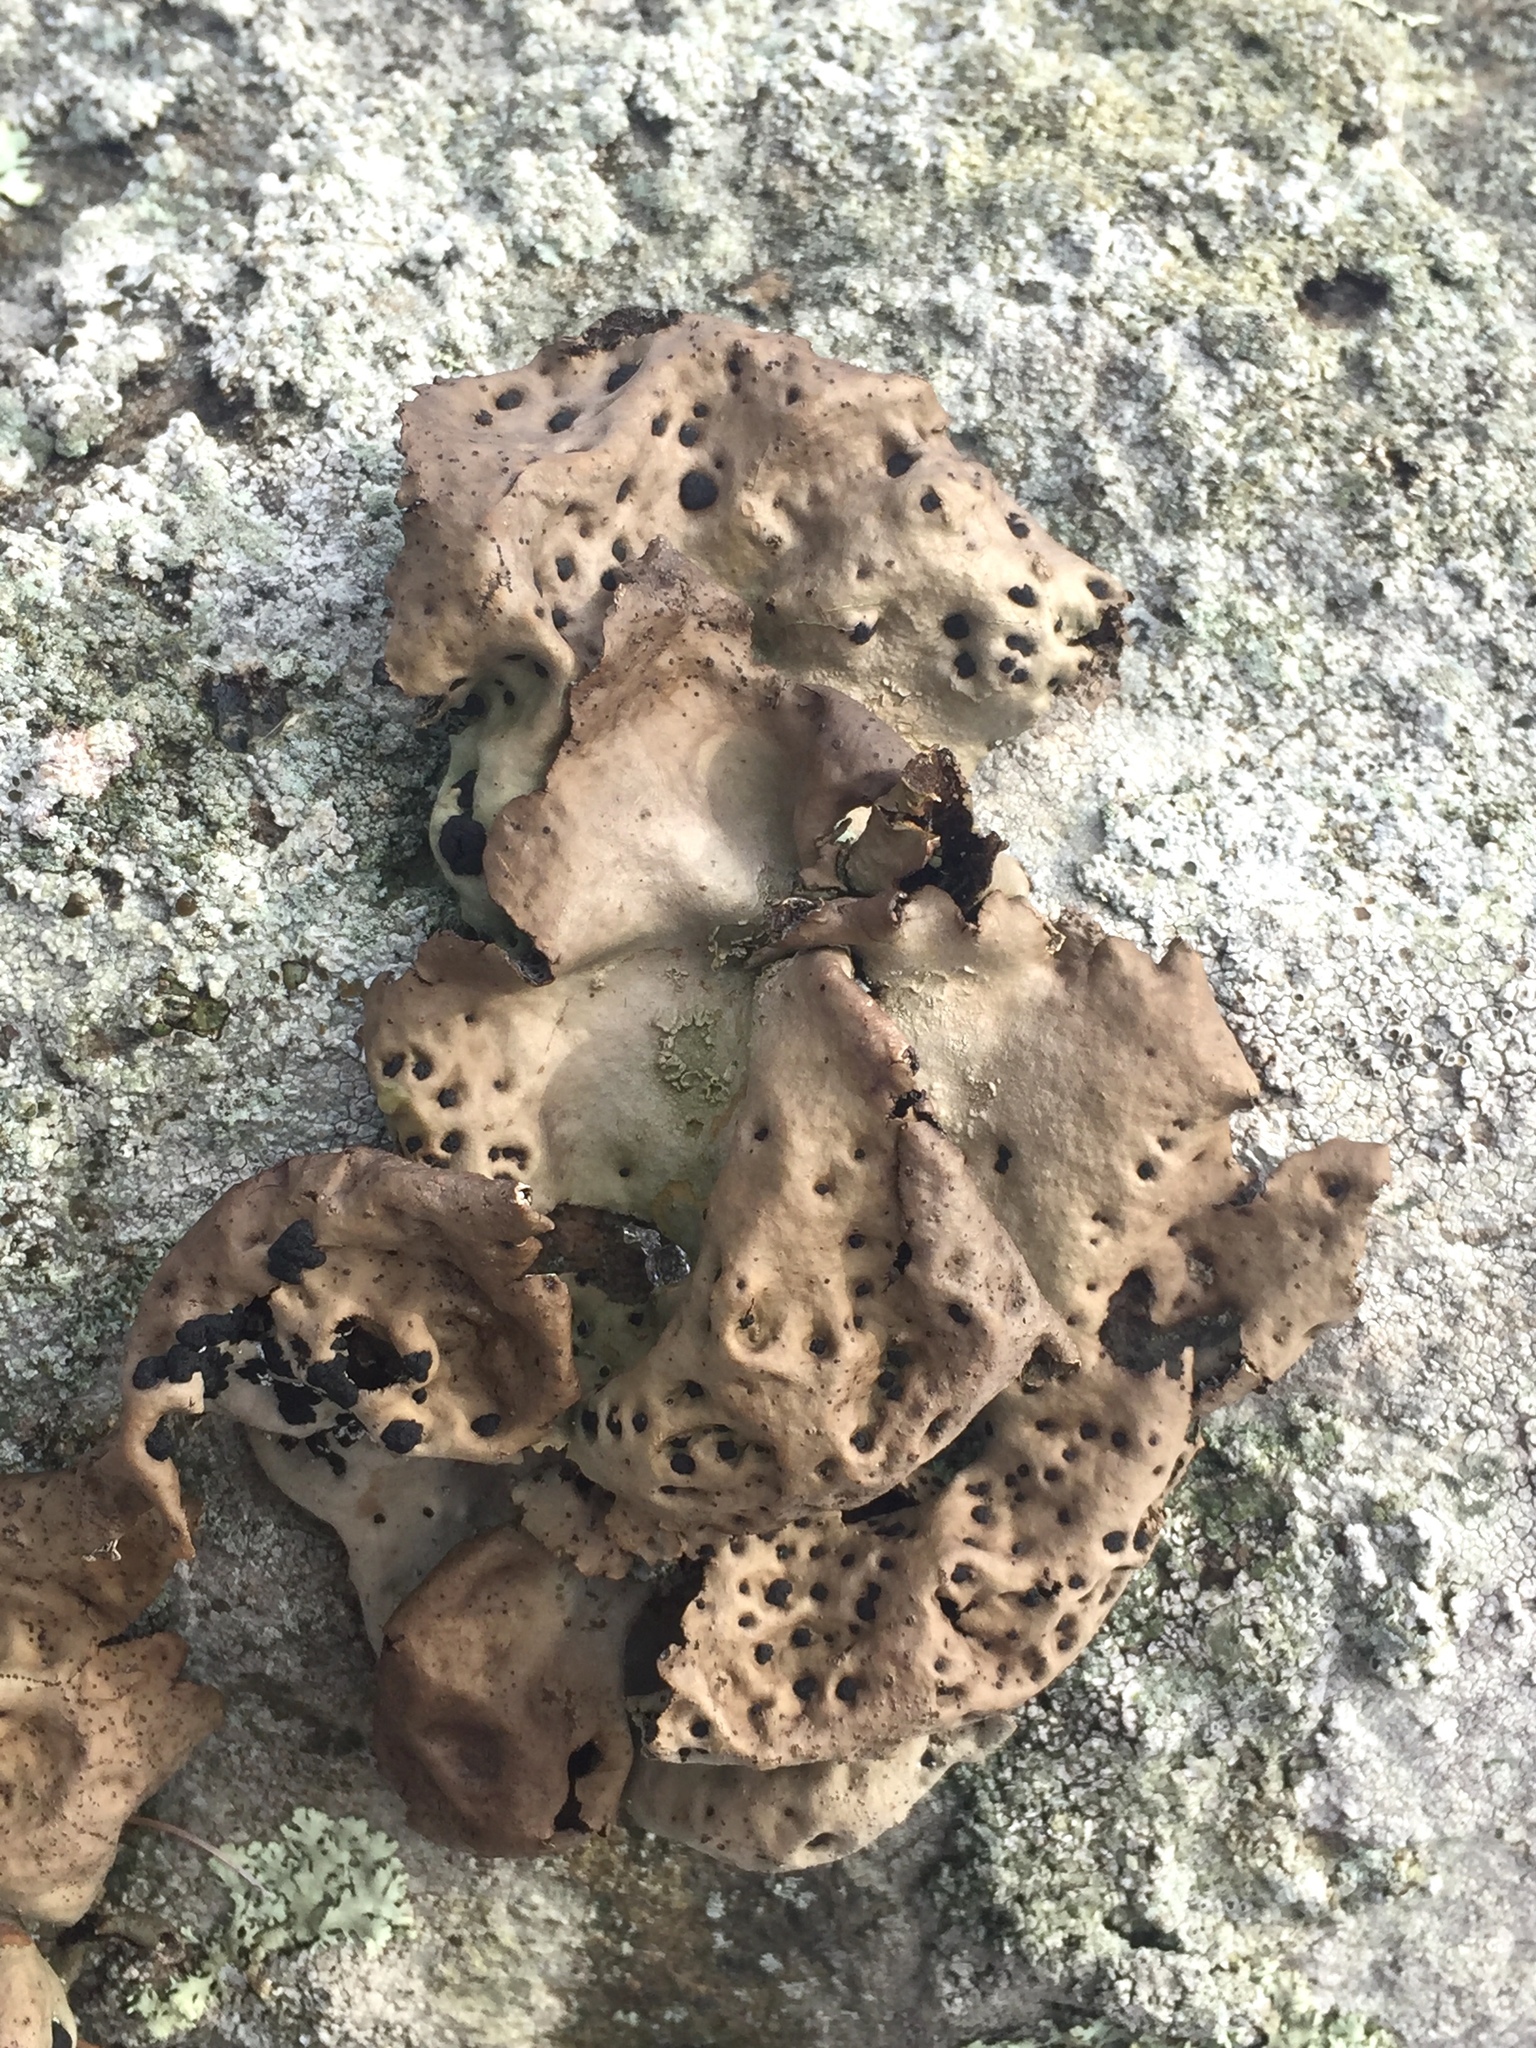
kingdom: Fungi
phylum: Ascomycota
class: Lecanoromycetes
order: Umbilicariales
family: Umbilicariaceae
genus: Umbilicaria
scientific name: Umbilicaria muhlenbergii
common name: Lesser rocktripe
